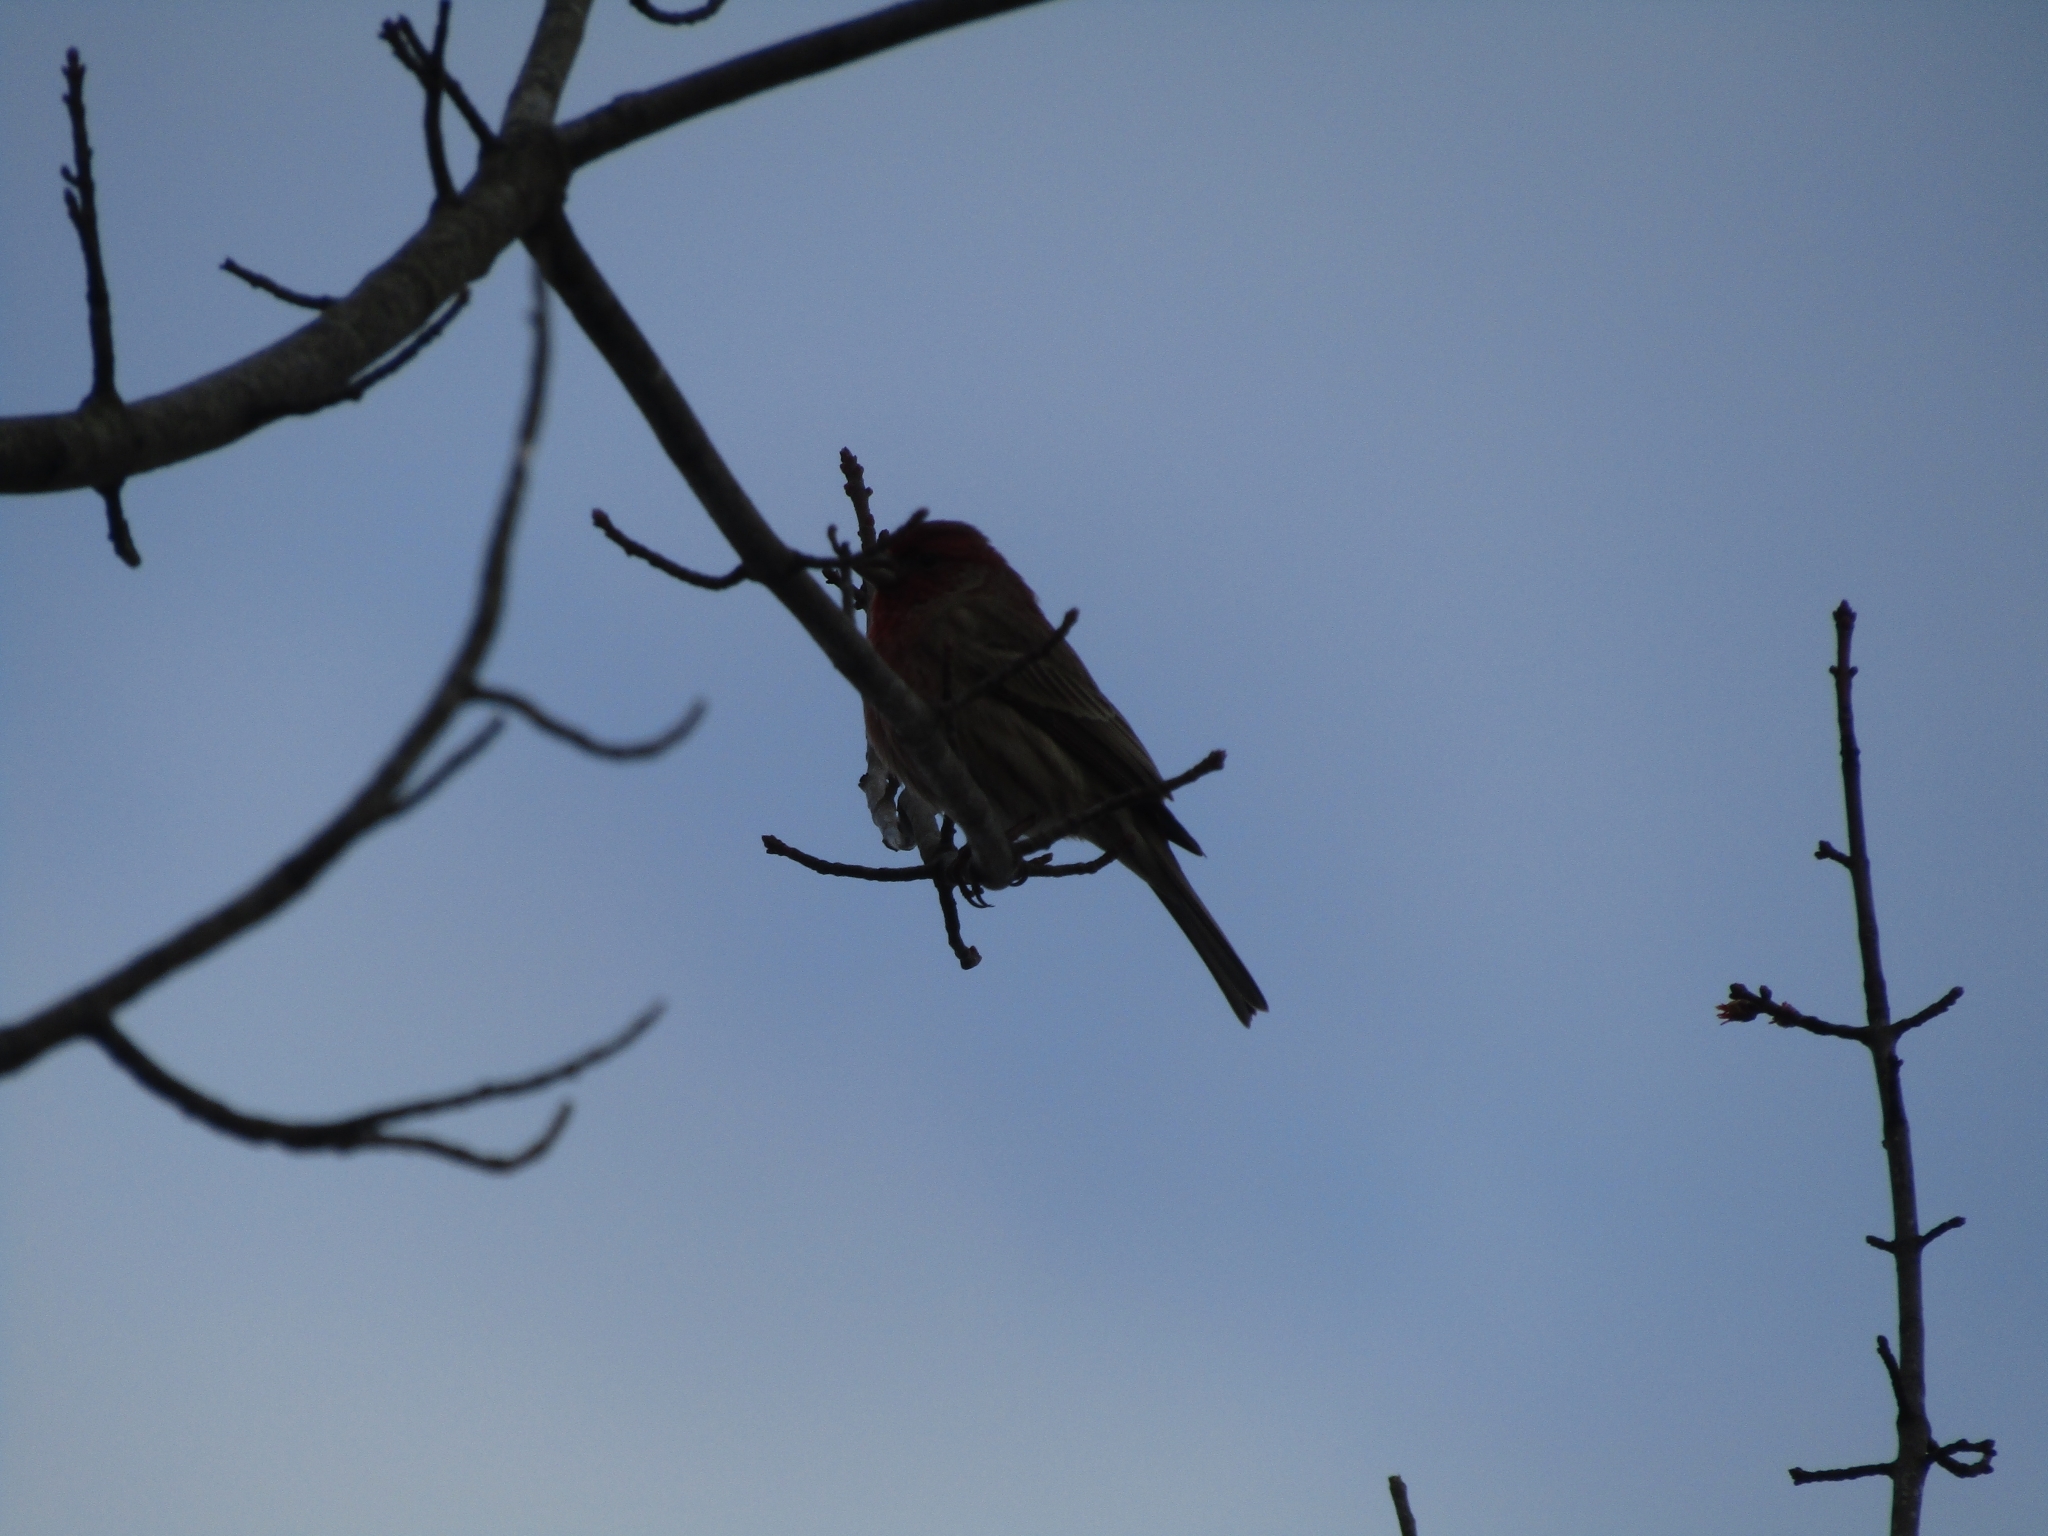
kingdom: Animalia
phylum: Chordata
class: Aves
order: Passeriformes
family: Fringillidae
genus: Haemorhous
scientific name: Haemorhous mexicanus
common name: House finch
